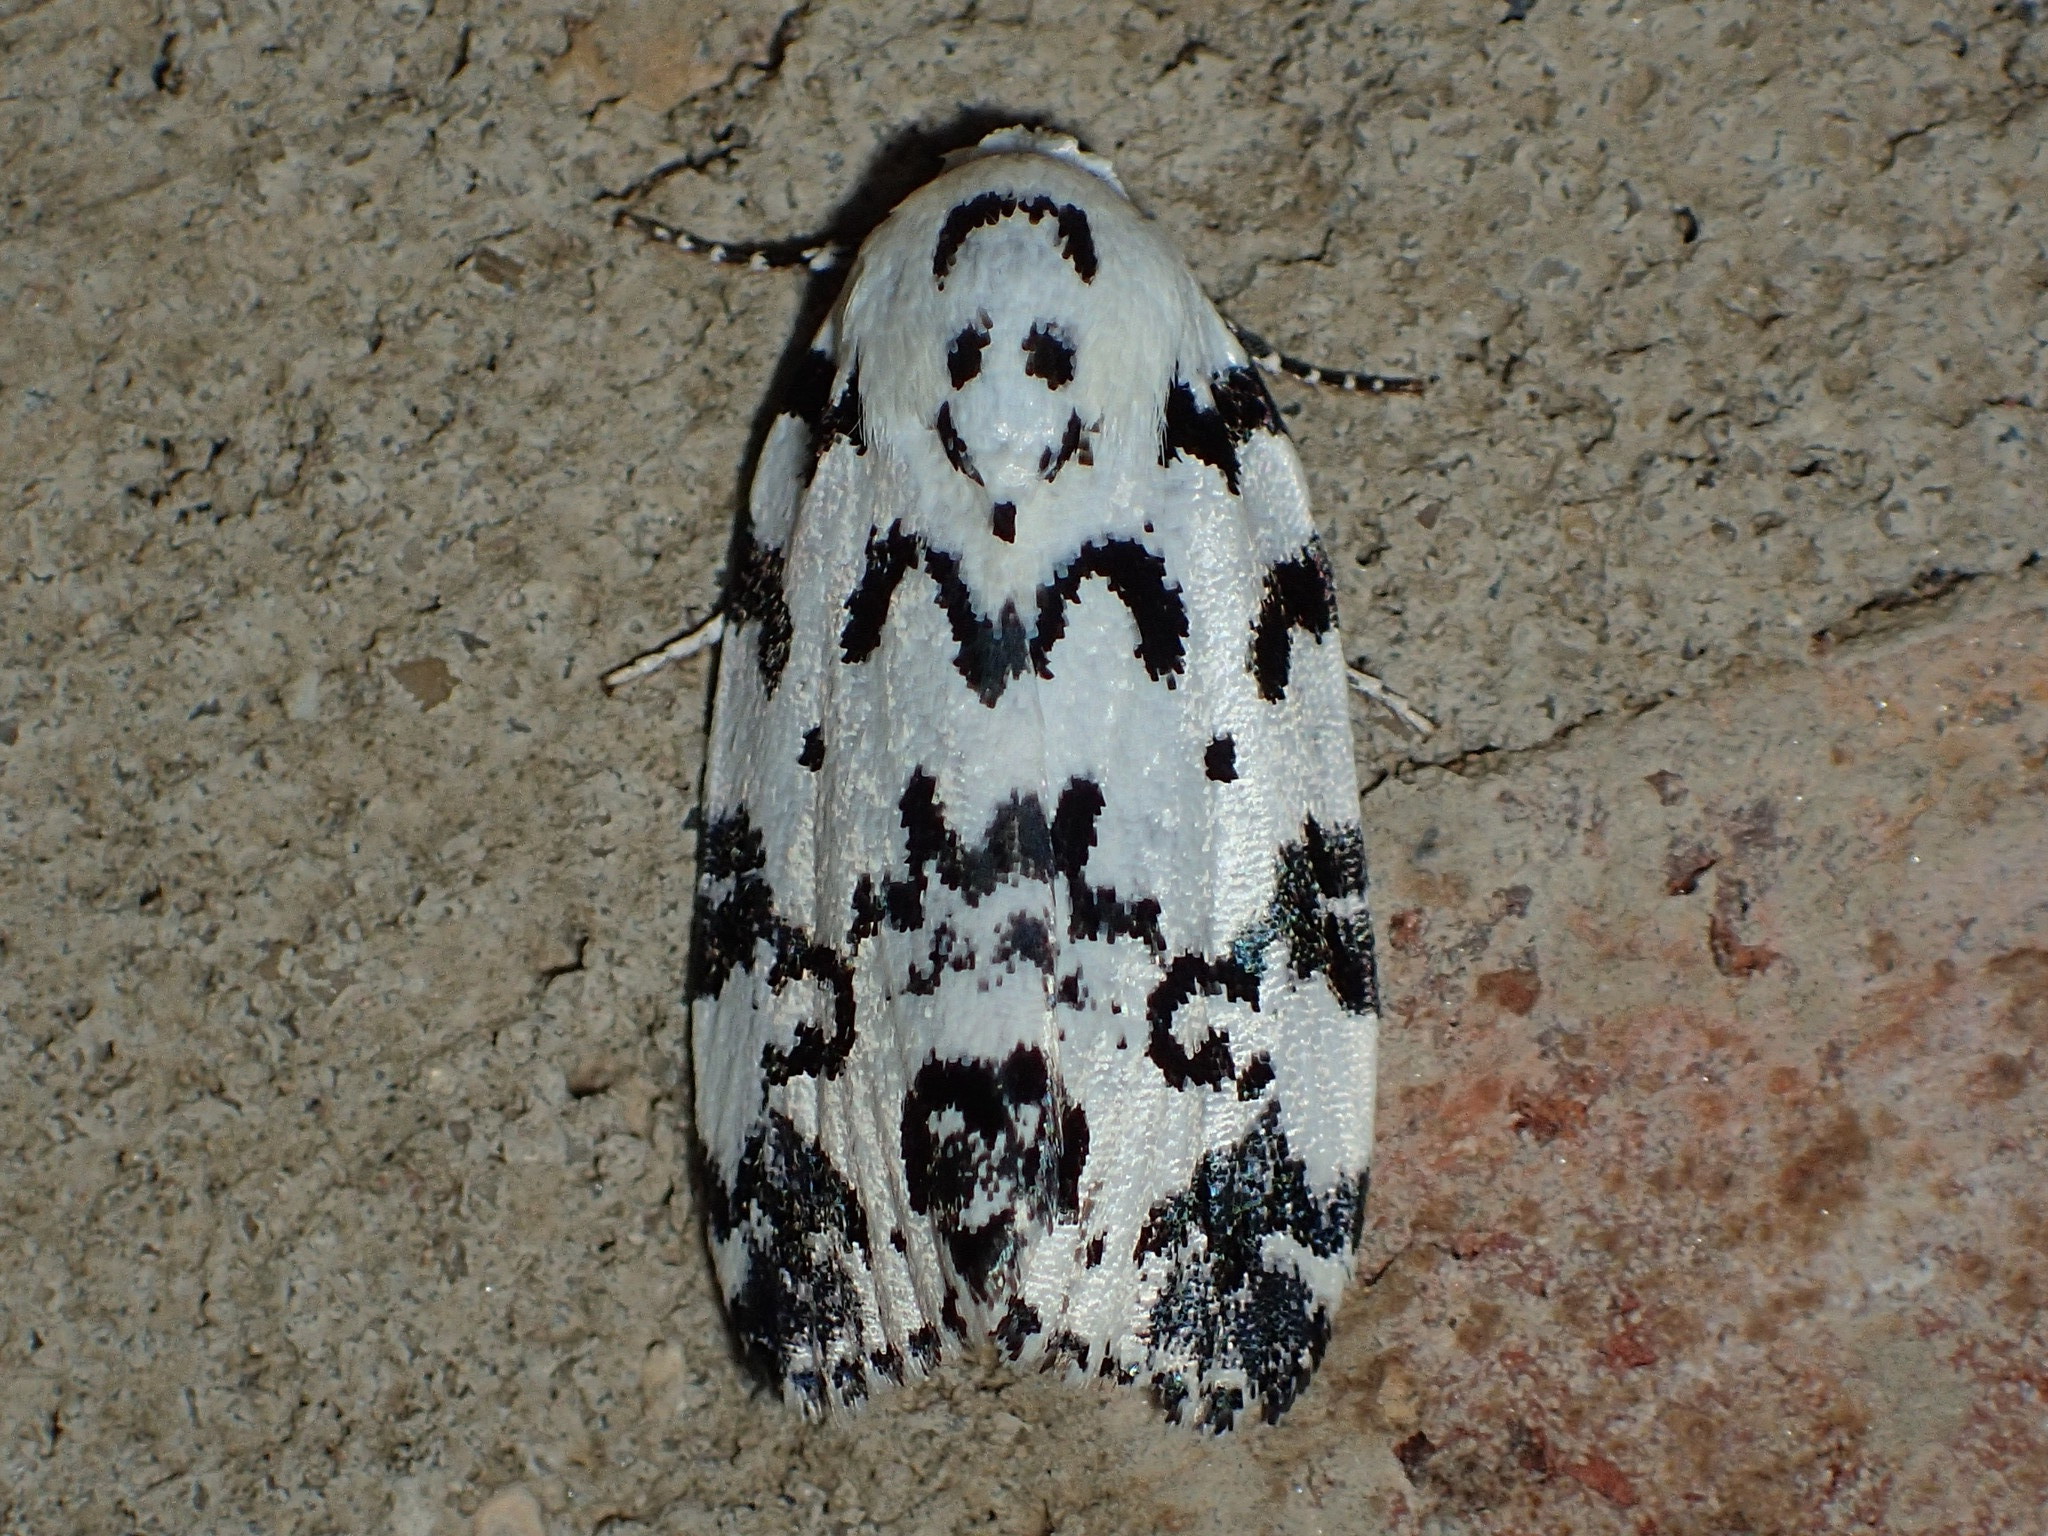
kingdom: Animalia
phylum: Arthropoda
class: Insecta
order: Lepidoptera
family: Noctuidae
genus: Polygrammate
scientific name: Polygrammate hebraeicum
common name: Hebrew moth
